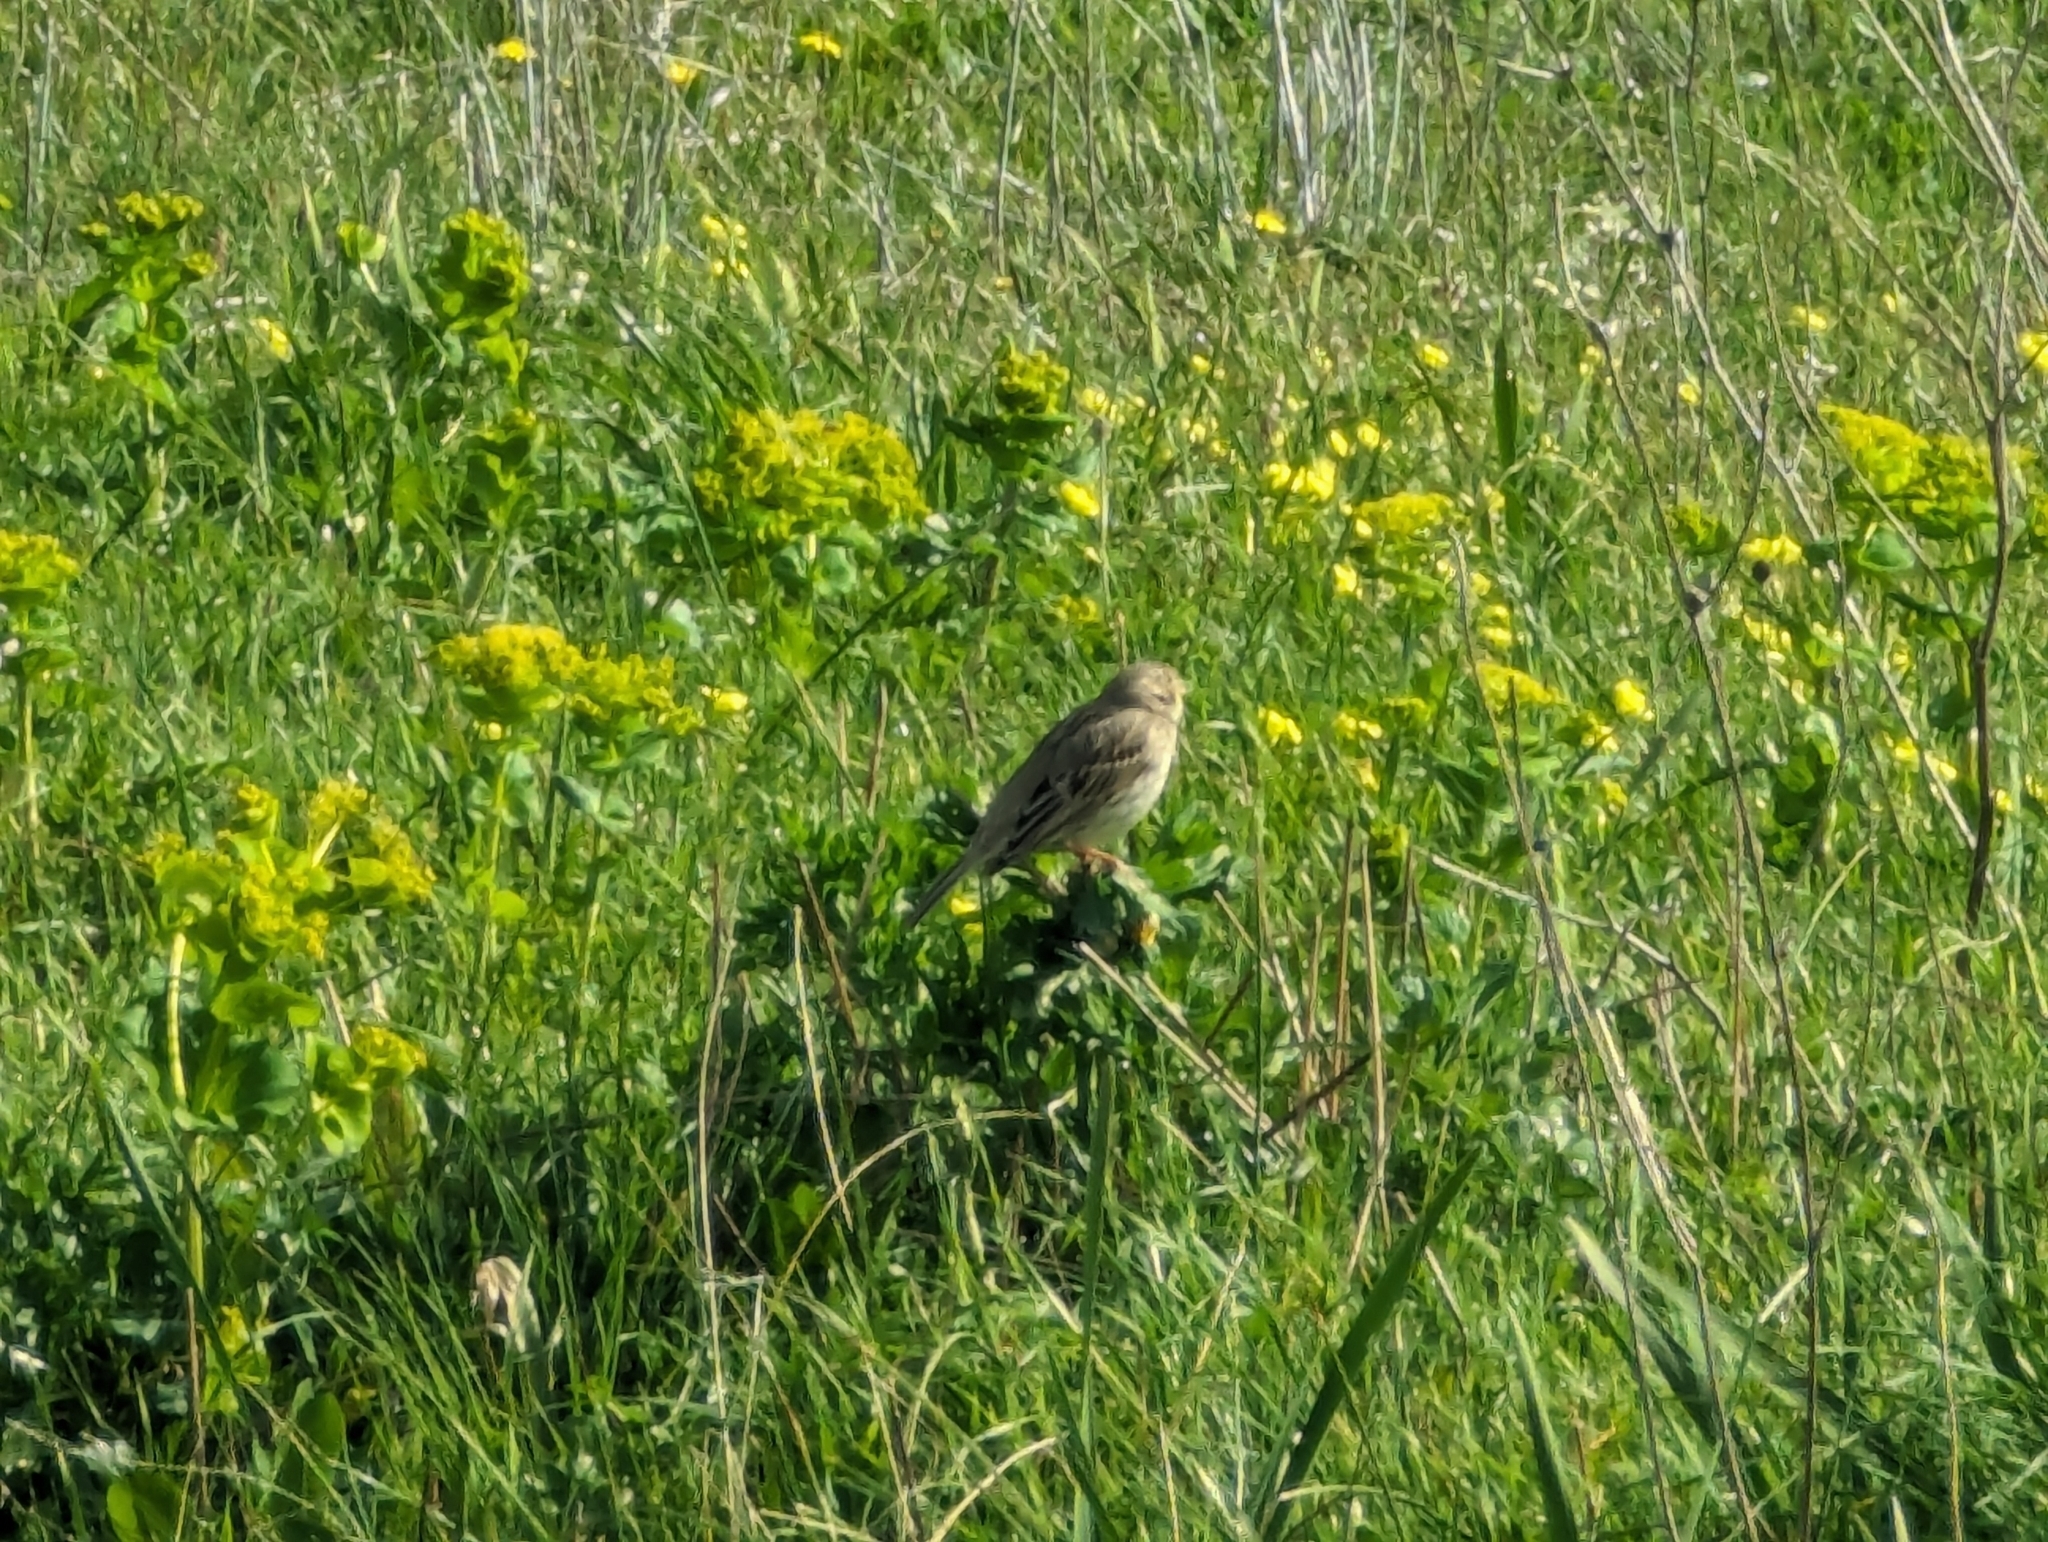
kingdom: Animalia
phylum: Chordata
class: Aves
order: Passeriformes
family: Emberizidae
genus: Emberiza
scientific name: Emberiza calandra
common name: Corn bunting
